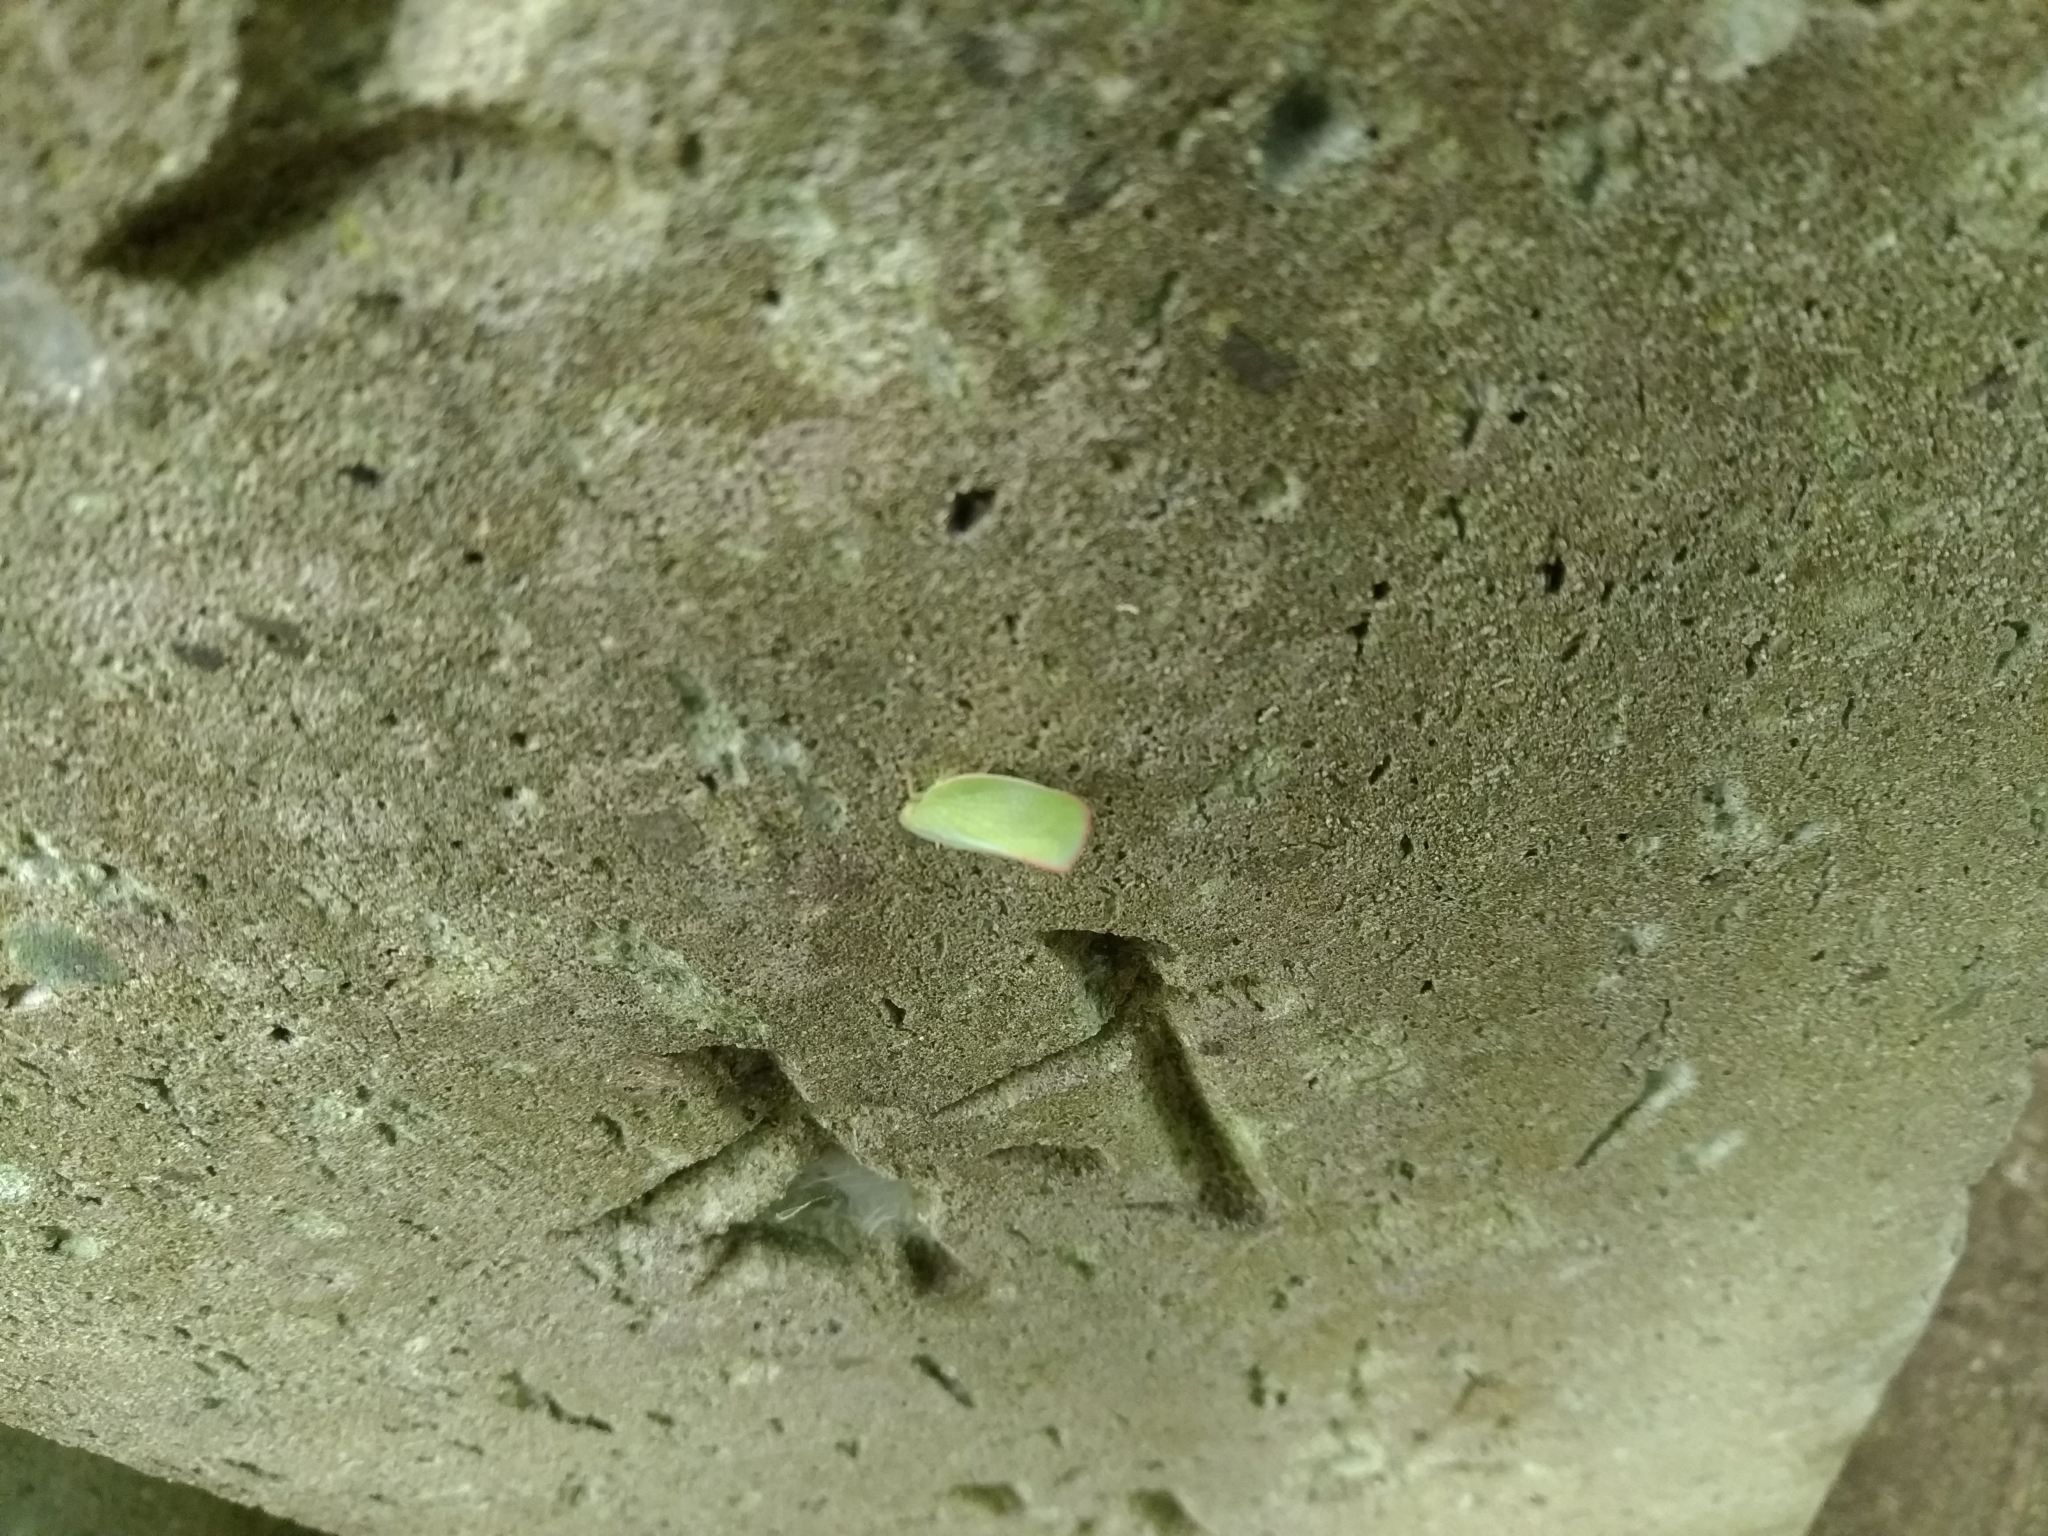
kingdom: Animalia
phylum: Arthropoda
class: Insecta
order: Hemiptera
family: Flatidae
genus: Geisha
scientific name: Geisha distinctissima
